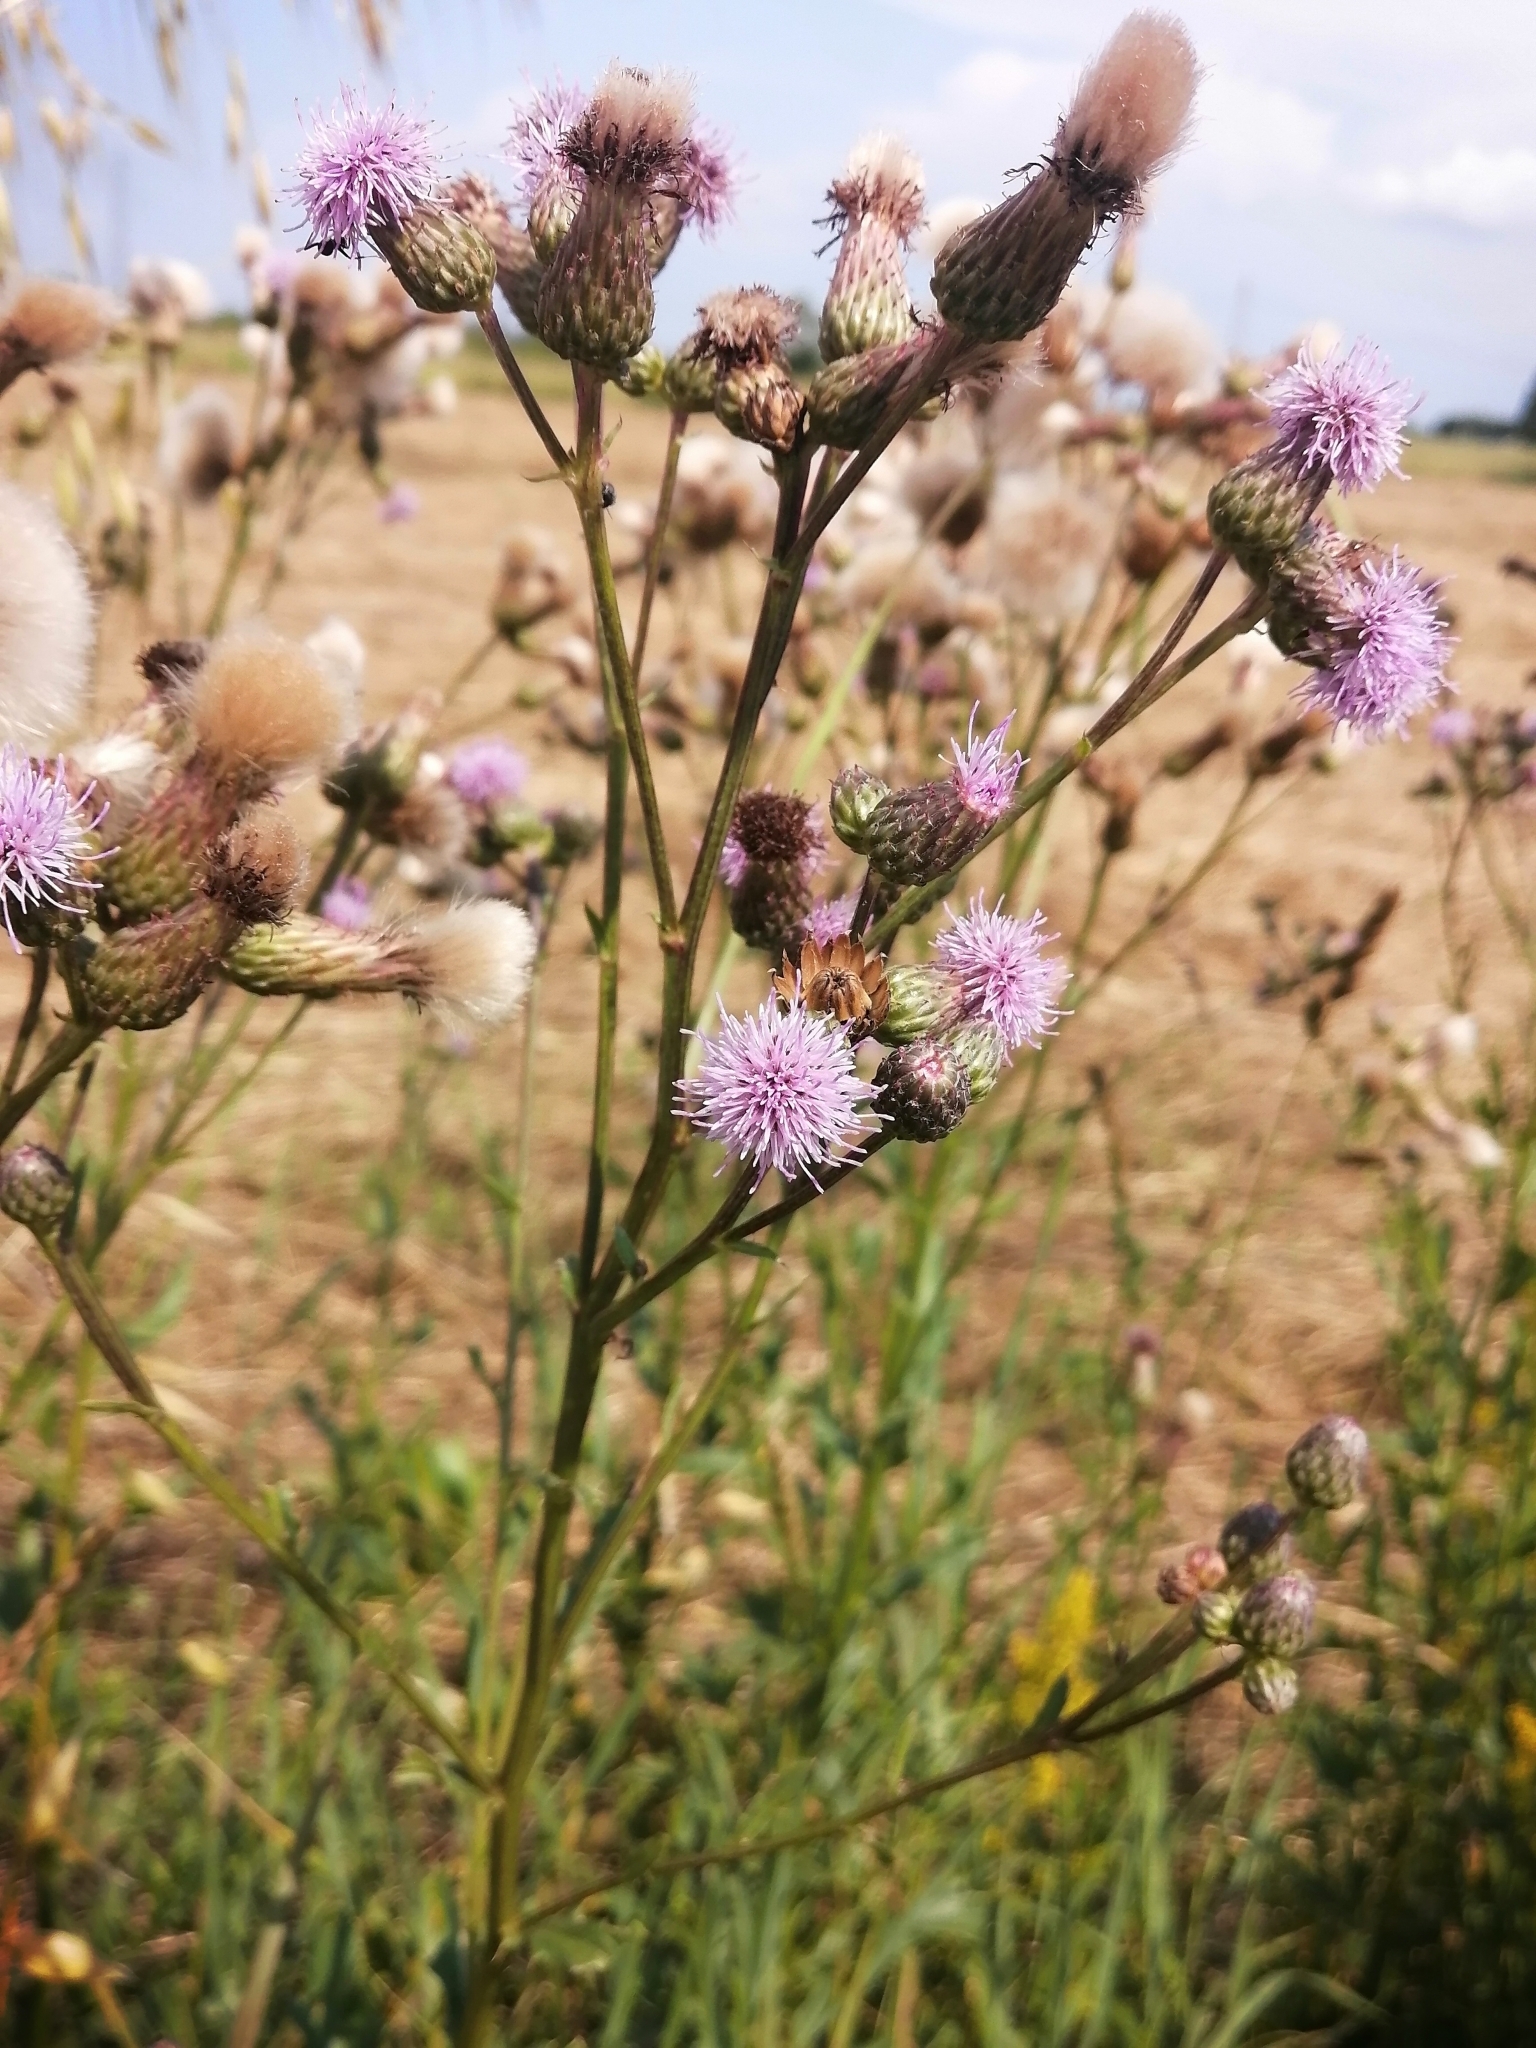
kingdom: Plantae
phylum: Tracheophyta
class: Magnoliopsida
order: Asterales
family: Asteraceae
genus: Cirsium
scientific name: Cirsium arvense
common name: Creeping thistle
